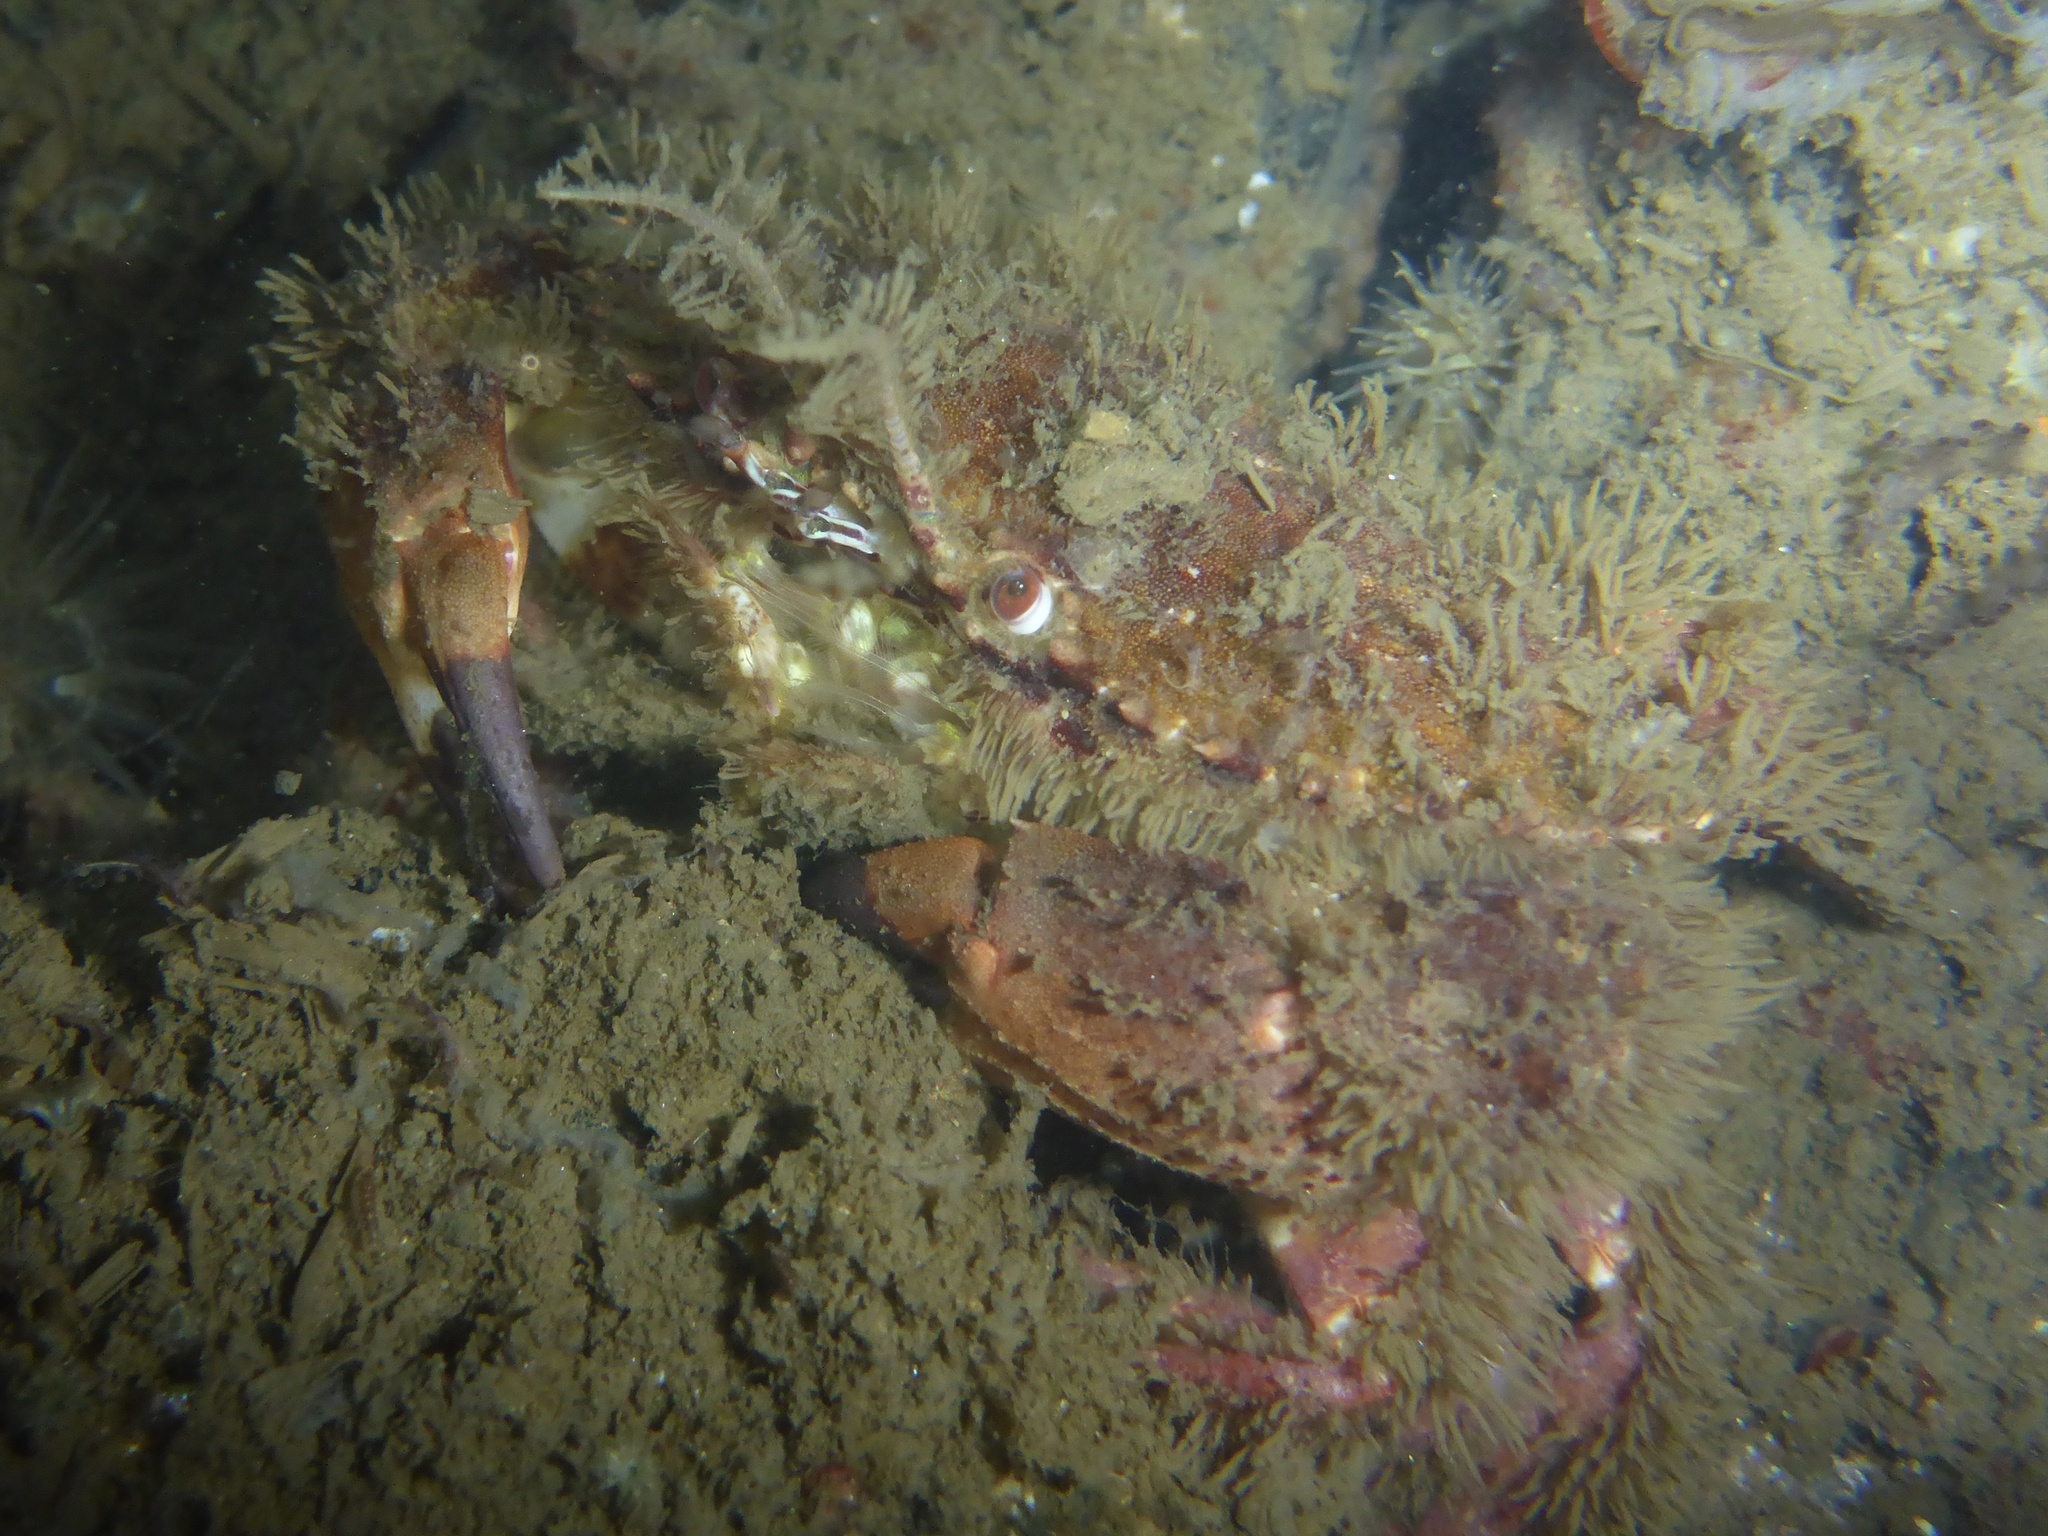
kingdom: Animalia
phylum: Arthropoda
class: Malacostraca
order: Decapoda
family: Cancridae
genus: Romaleon
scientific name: Romaleon antennarium
